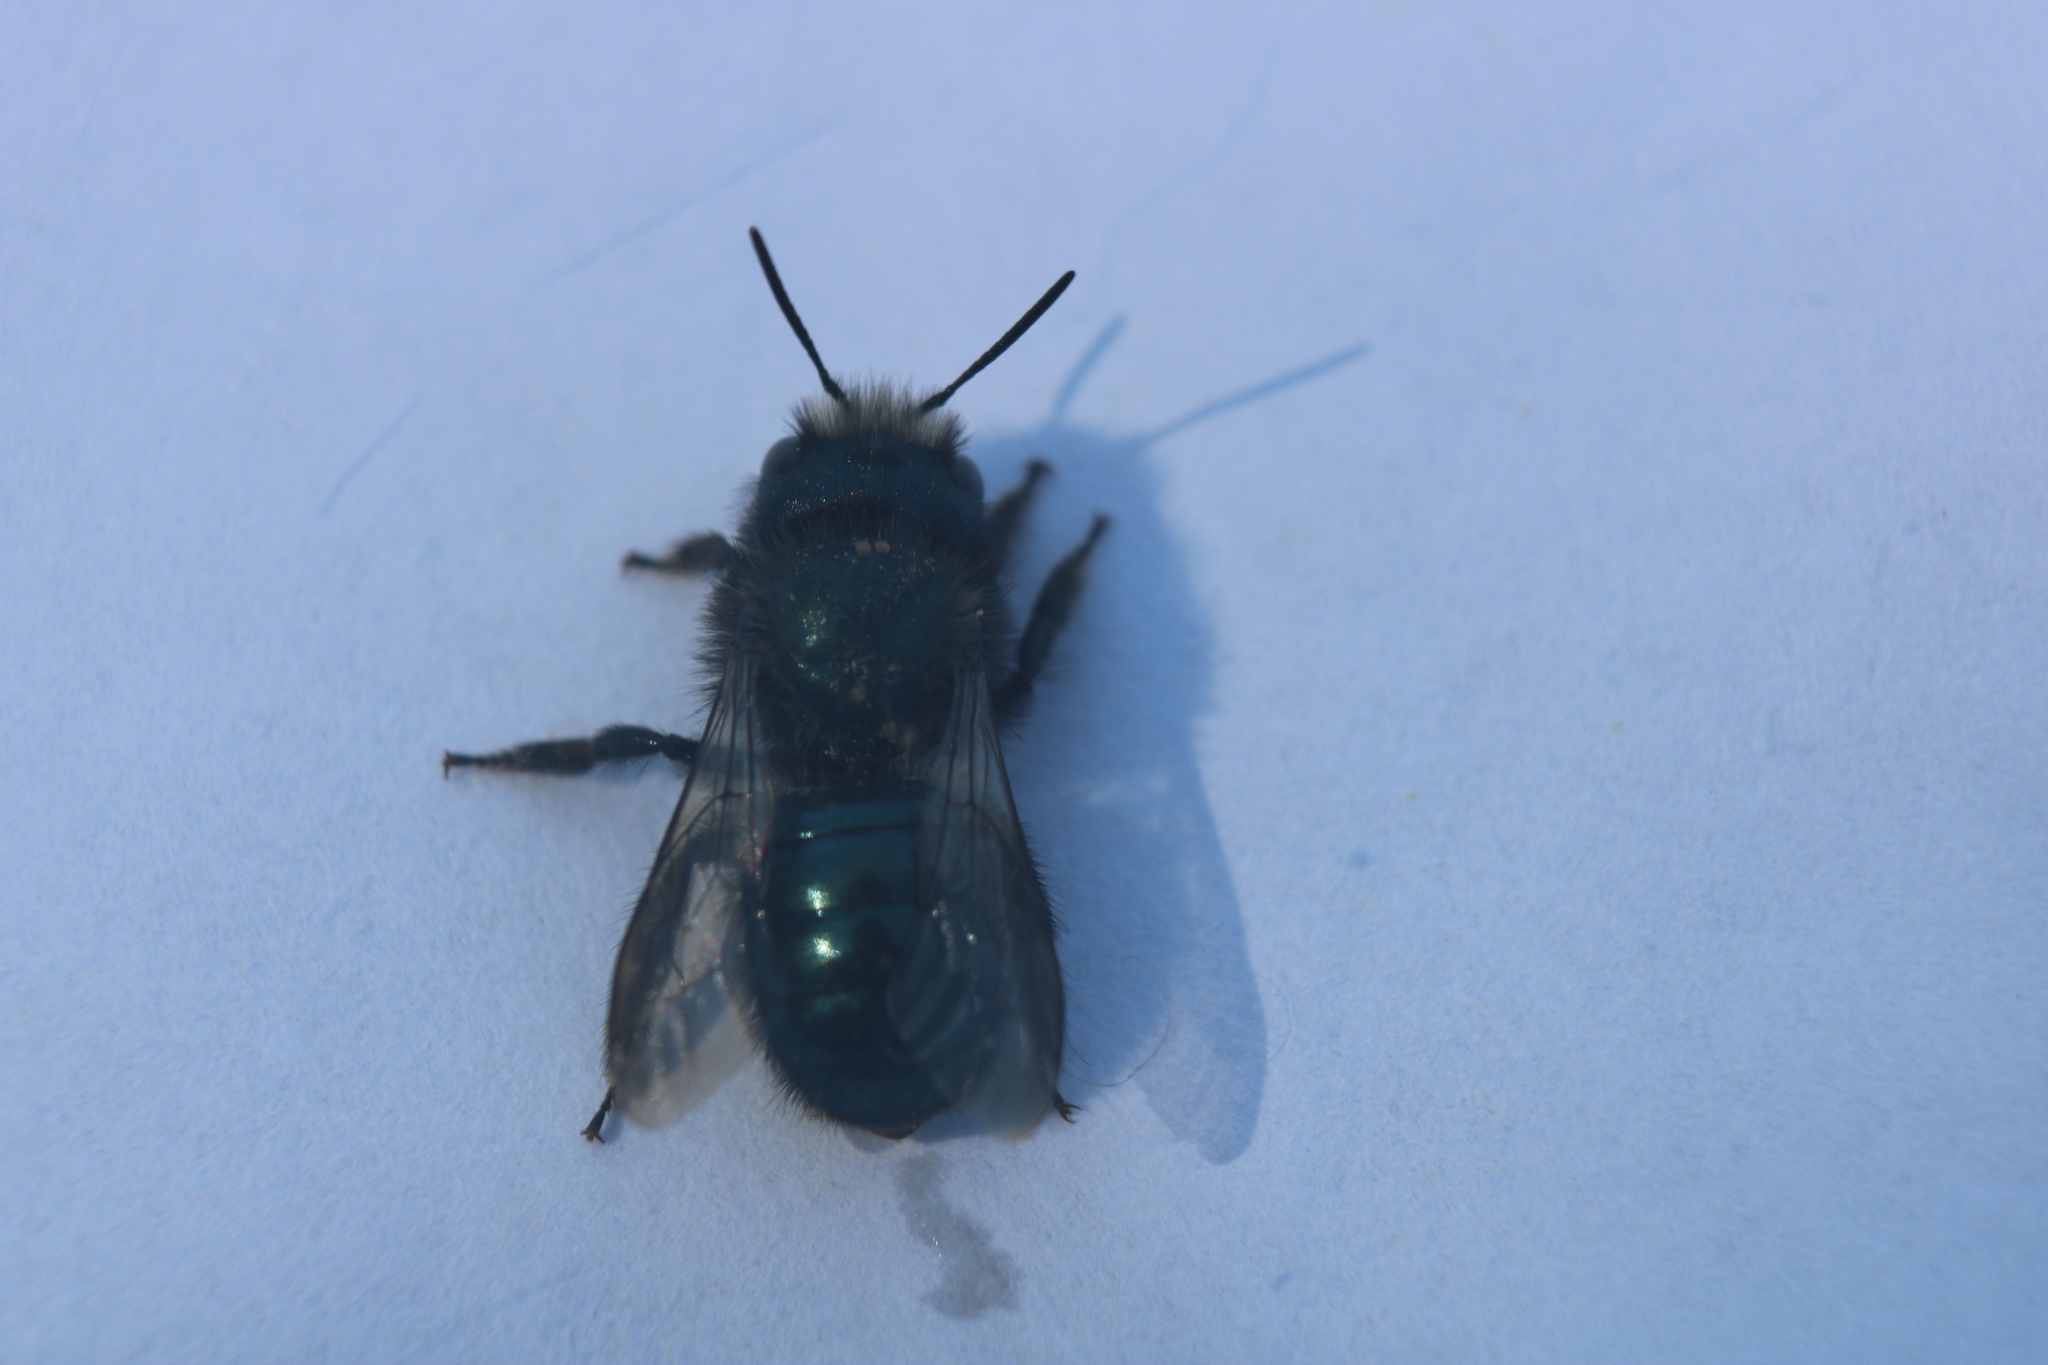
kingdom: Animalia
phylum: Arthropoda
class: Insecta
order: Hymenoptera
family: Megachilidae
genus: Osmia
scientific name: Osmia lignaria
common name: Blue orchard bee
